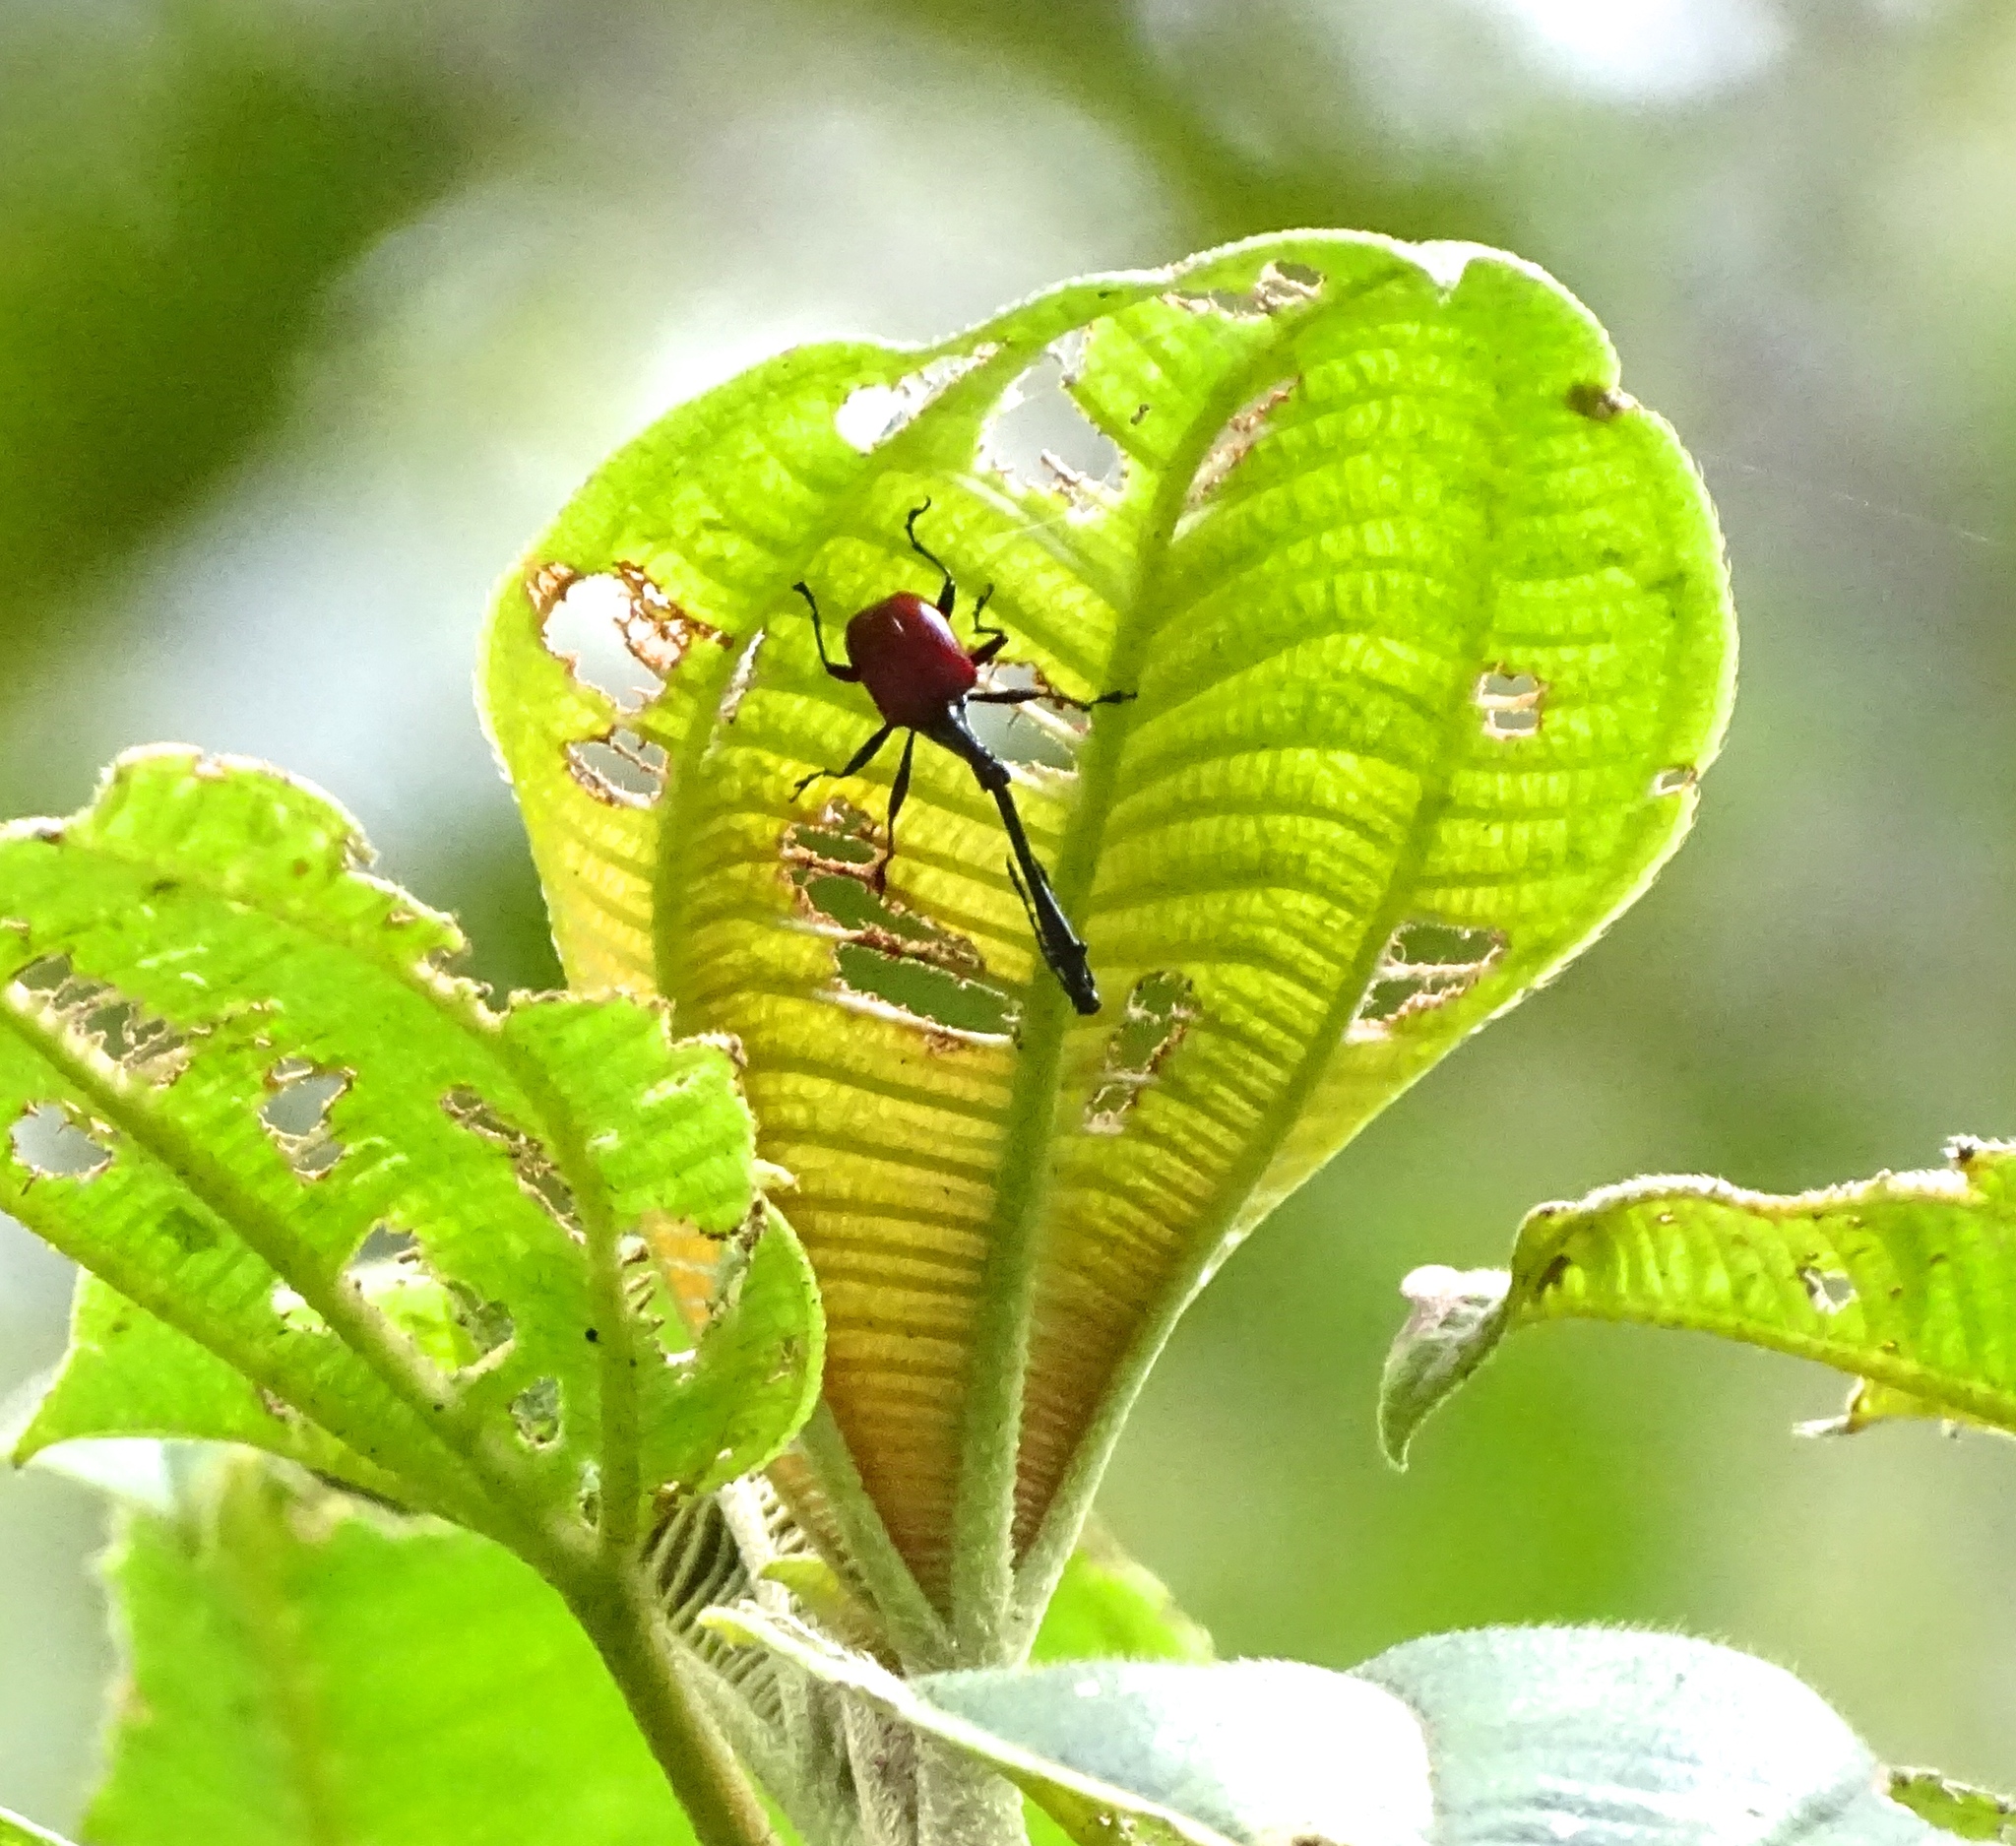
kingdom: Animalia
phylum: Arthropoda
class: Insecta
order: Coleoptera
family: Attelabidae
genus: Trachelophorus
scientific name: Trachelophorus giraffa
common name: Giraffe weevil
